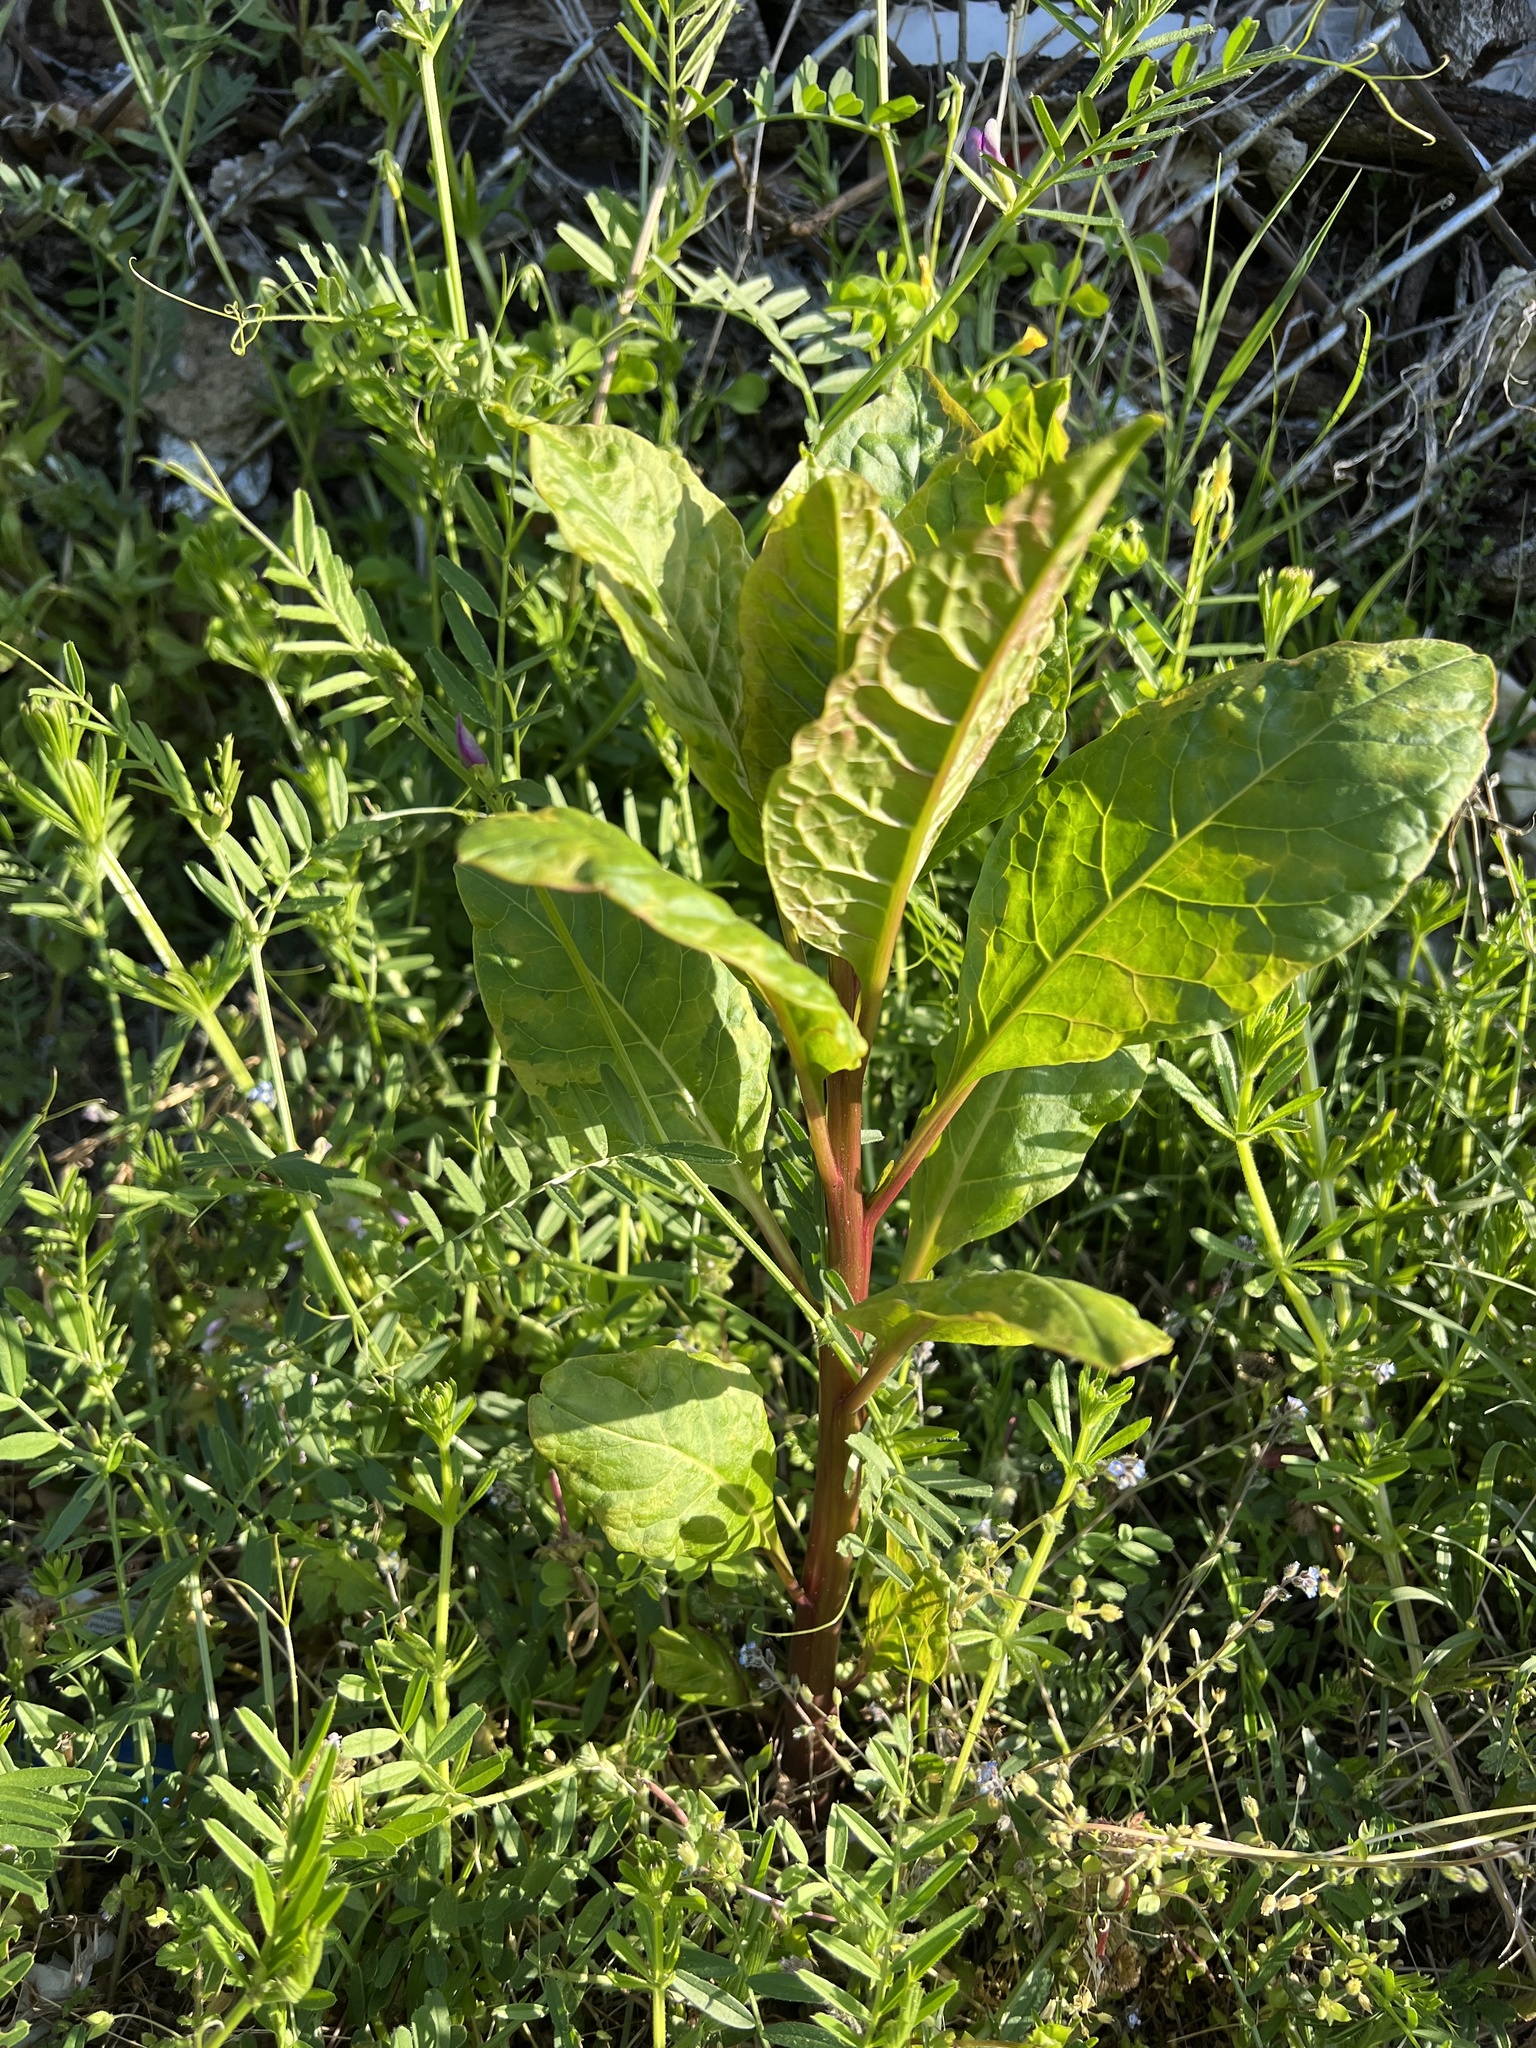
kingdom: Plantae
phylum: Tracheophyta
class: Magnoliopsida
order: Caryophyllales
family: Phytolaccaceae
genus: Phytolacca
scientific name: Phytolacca americana
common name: American pokeweed
